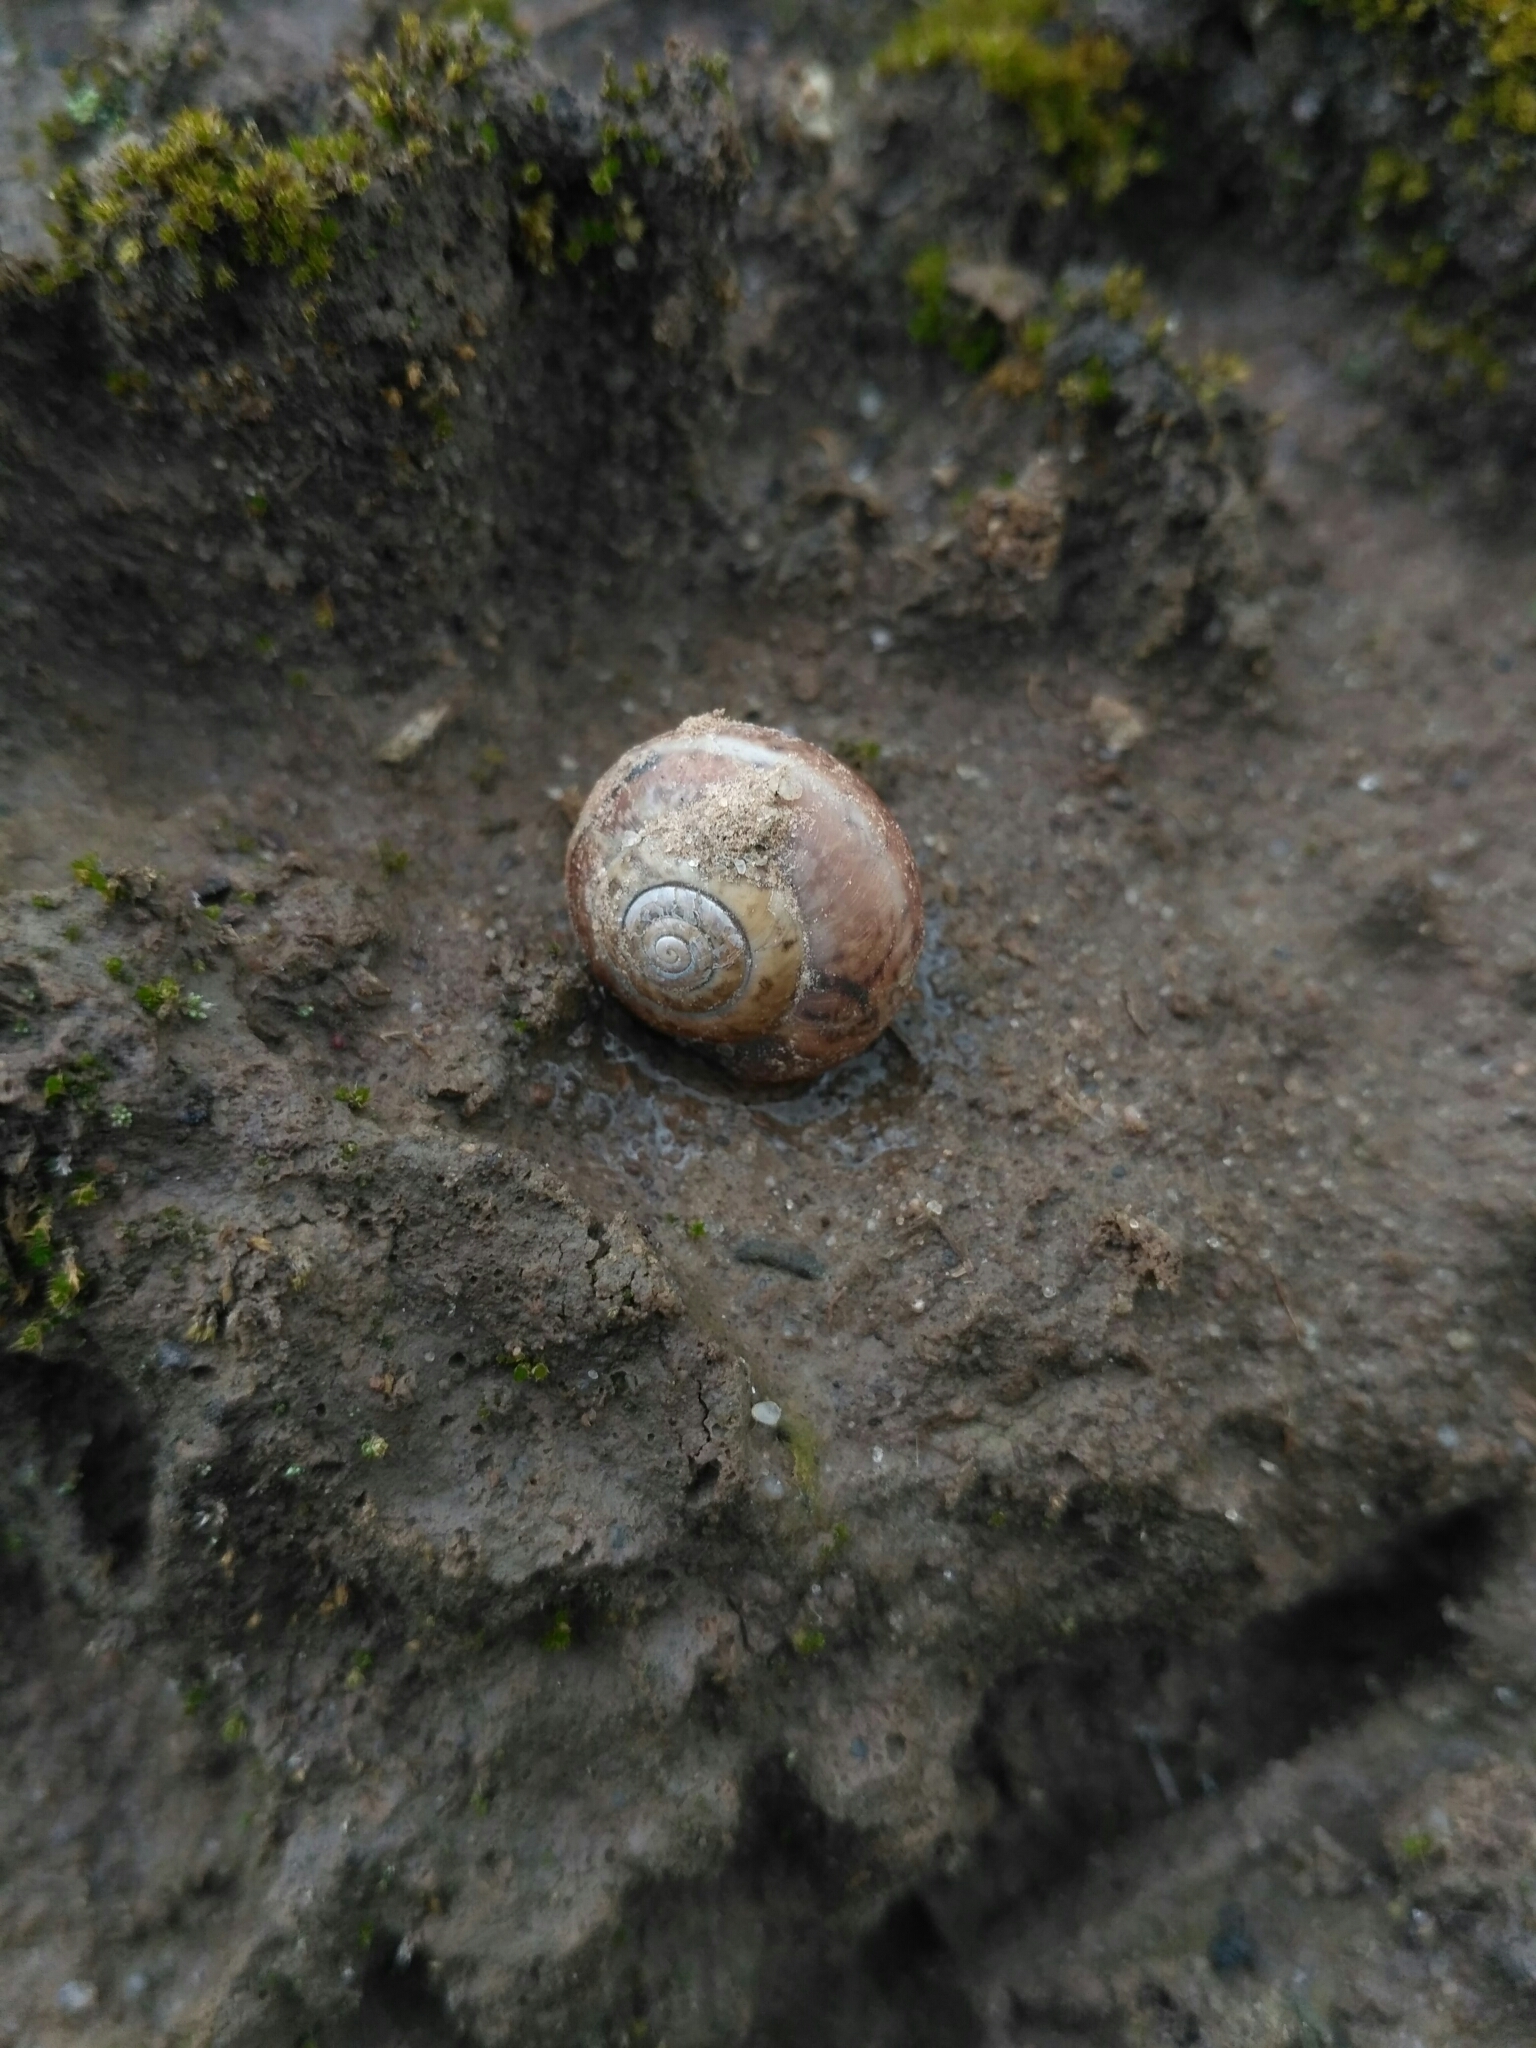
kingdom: Animalia
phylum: Mollusca
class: Gastropoda
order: Stylommatophora
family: Hygromiidae
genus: Monacha
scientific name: Monacha fruticola
